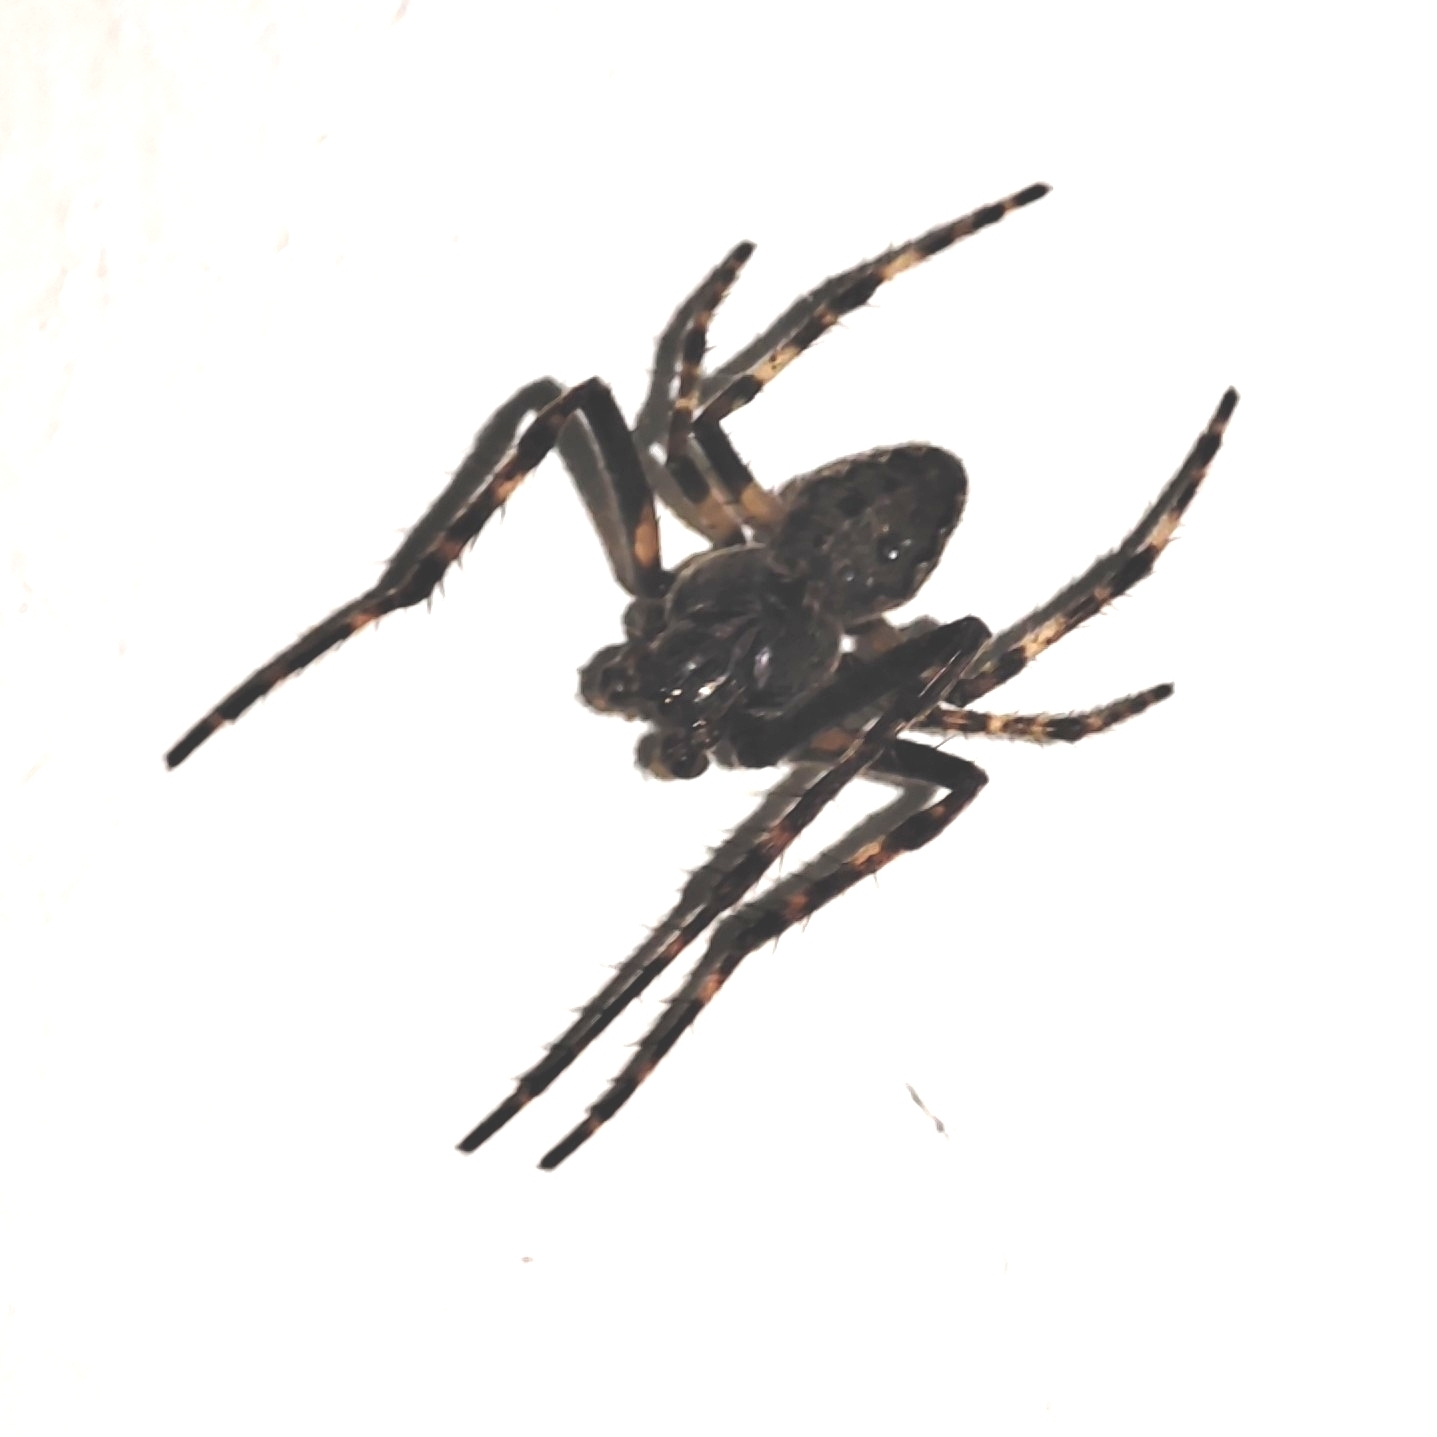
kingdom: Animalia
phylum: Arthropoda
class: Arachnida
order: Araneae
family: Araneidae
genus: Nuctenea
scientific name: Nuctenea umbratica
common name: Toad spider
